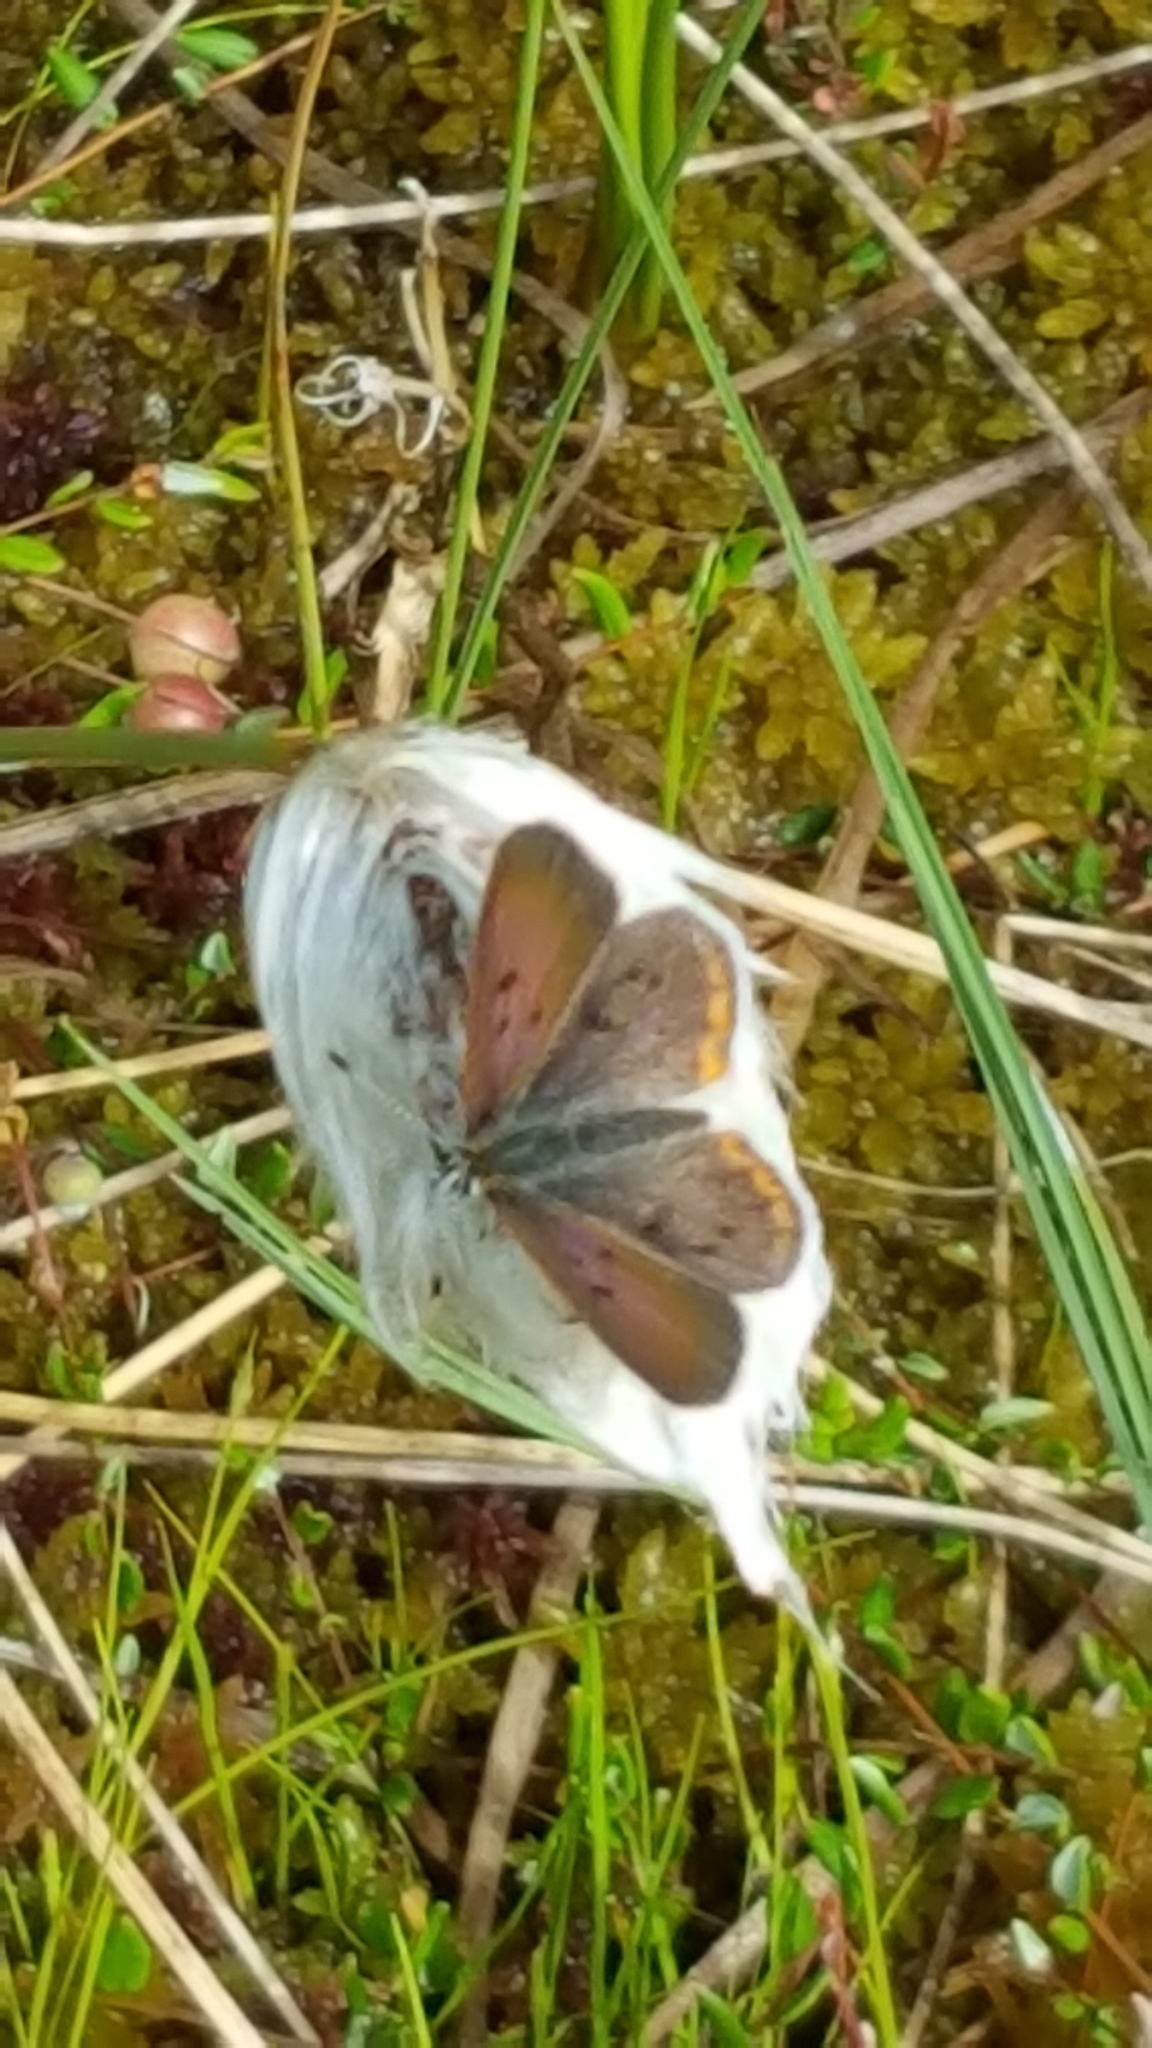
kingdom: Animalia
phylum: Arthropoda
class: Insecta
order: Lepidoptera
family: Lycaenidae
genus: Tharsalea
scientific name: Tharsalea epixanthe
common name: Bog copper
